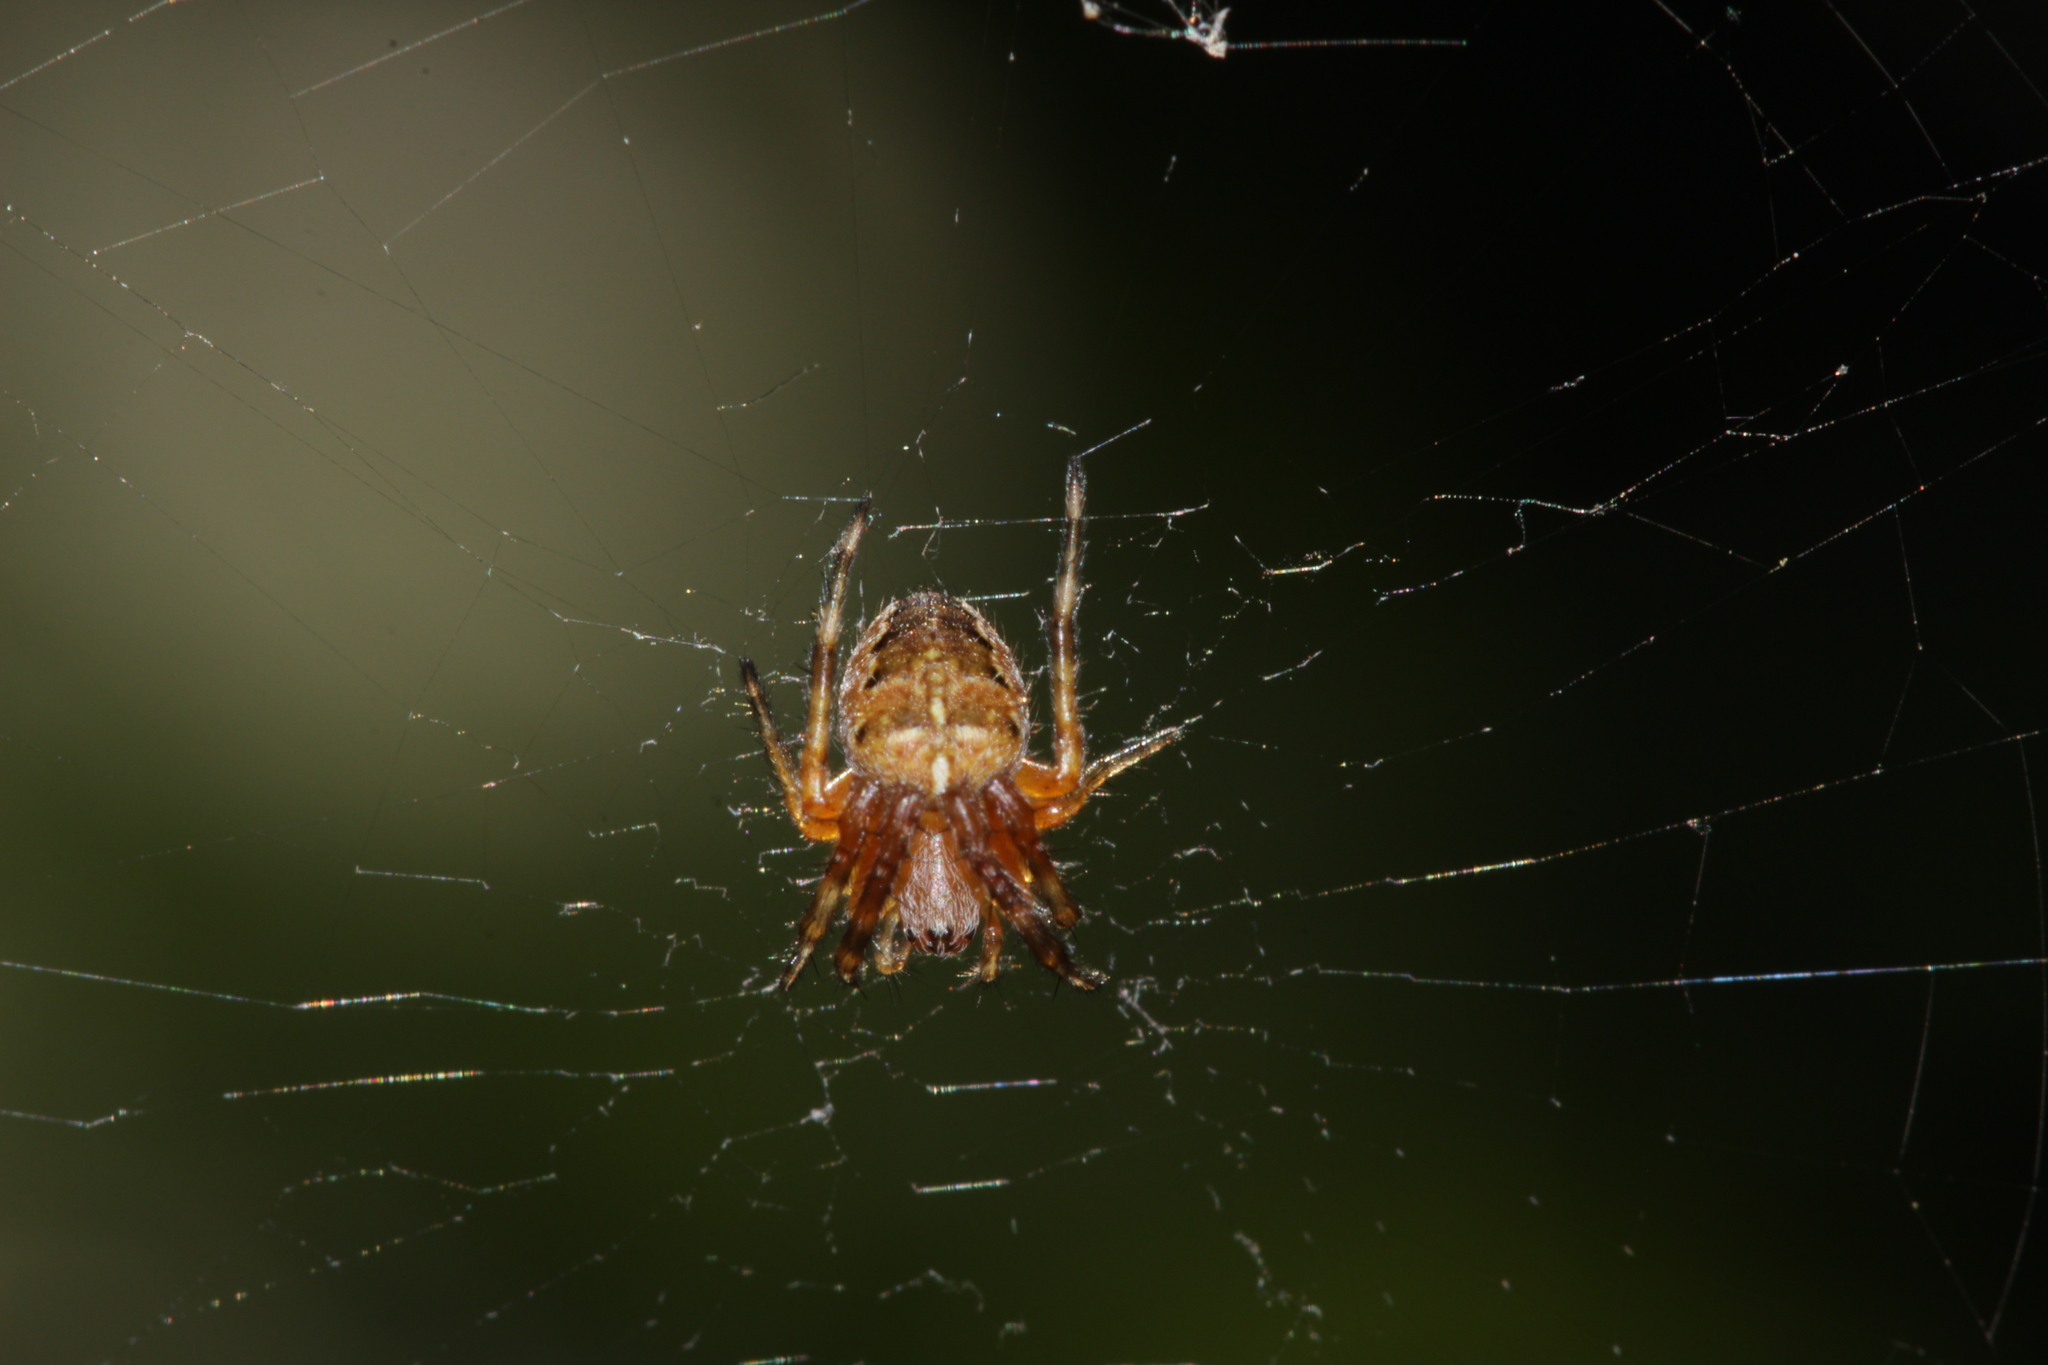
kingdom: Animalia
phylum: Arthropoda
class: Arachnida
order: Araneae
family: Araneidae
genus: Araneus
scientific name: Araneus diadematus
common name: Cross orbweaver
